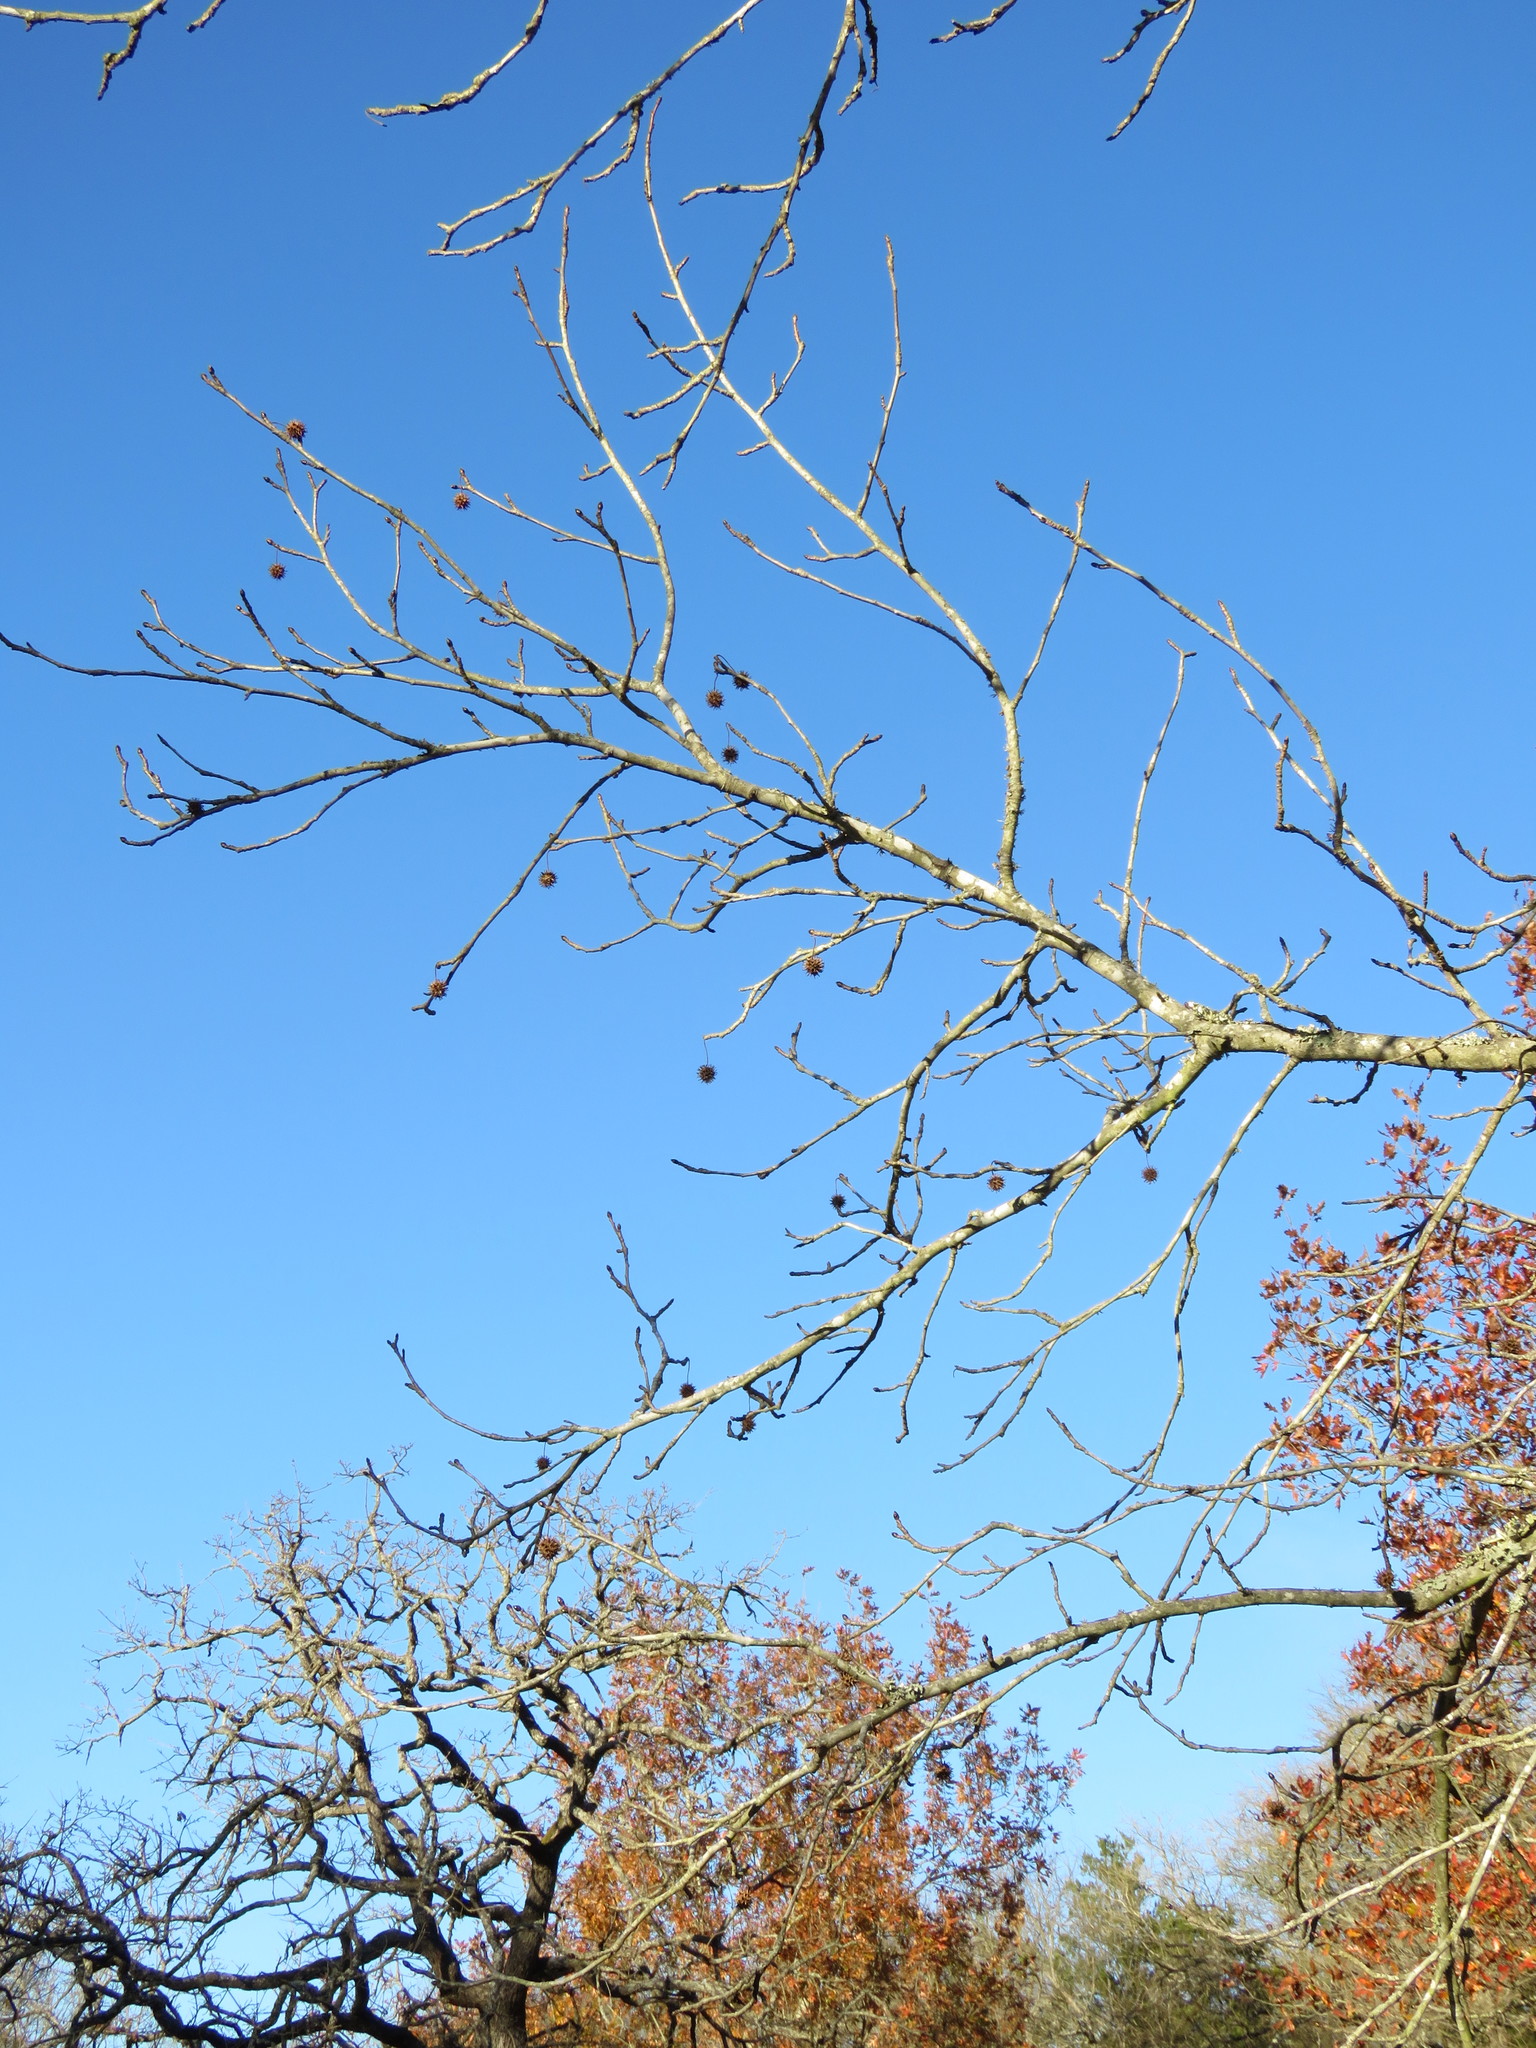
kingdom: Plantae
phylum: Tracheophyta
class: Magnoliopsida
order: Saxifragales
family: Altingiaceae
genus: Liquidambar
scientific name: Liquidambar styraciflua
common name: Sweet gum
